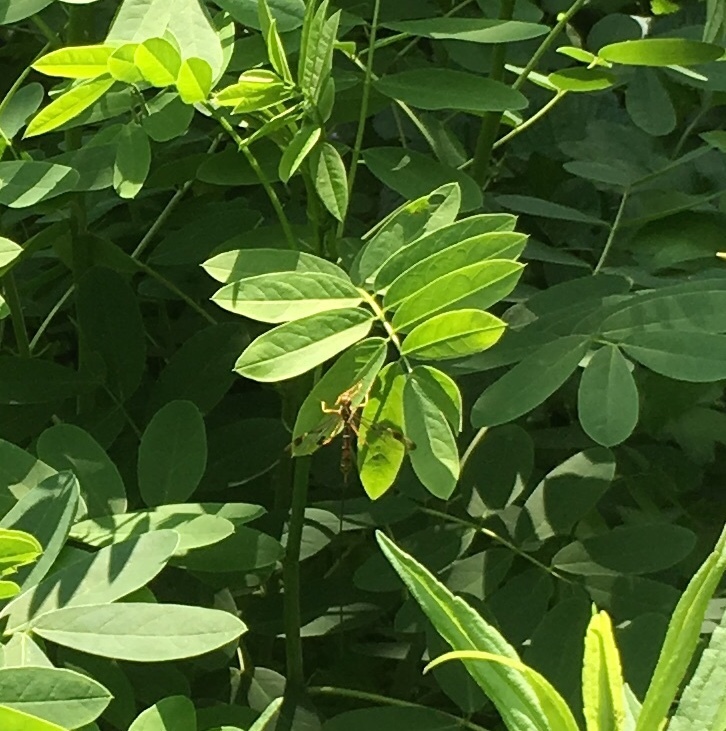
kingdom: Animalia
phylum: Arthropoda
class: Insecta
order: Hymenoptera
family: Ichneumonidae
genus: Megarhyssa
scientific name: Megarhyssa macrura
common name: Long-tailed giant ichneumonid wasp
